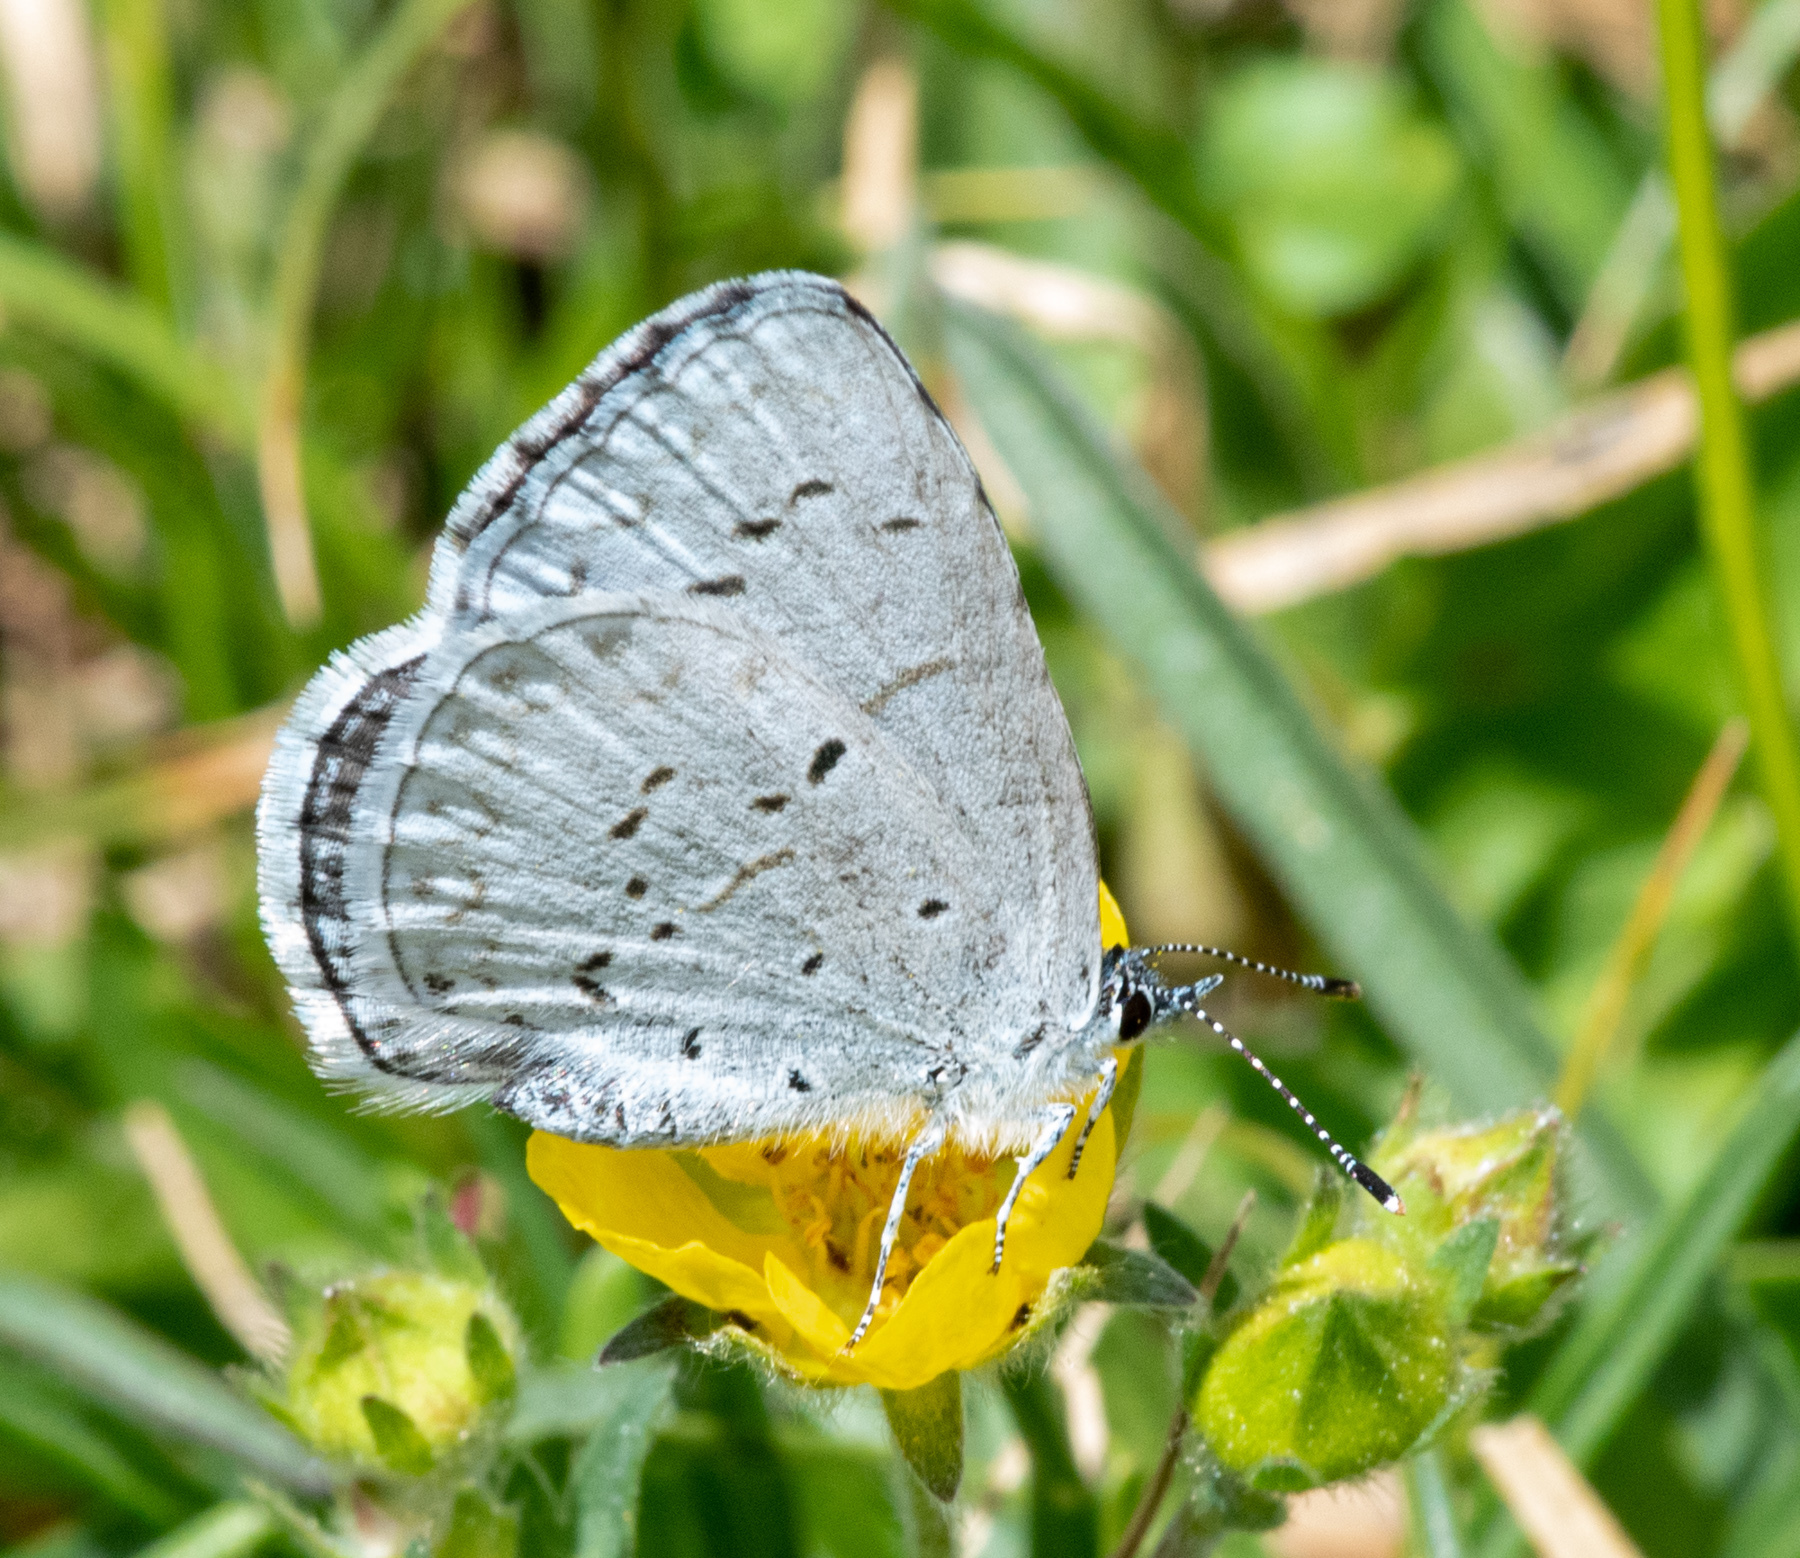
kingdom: Animalia
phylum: Arthropoda
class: Insecta
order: Lepidoptera
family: Lycaenidae
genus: Celastrina
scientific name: Celastrina ladon
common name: Spring azure
